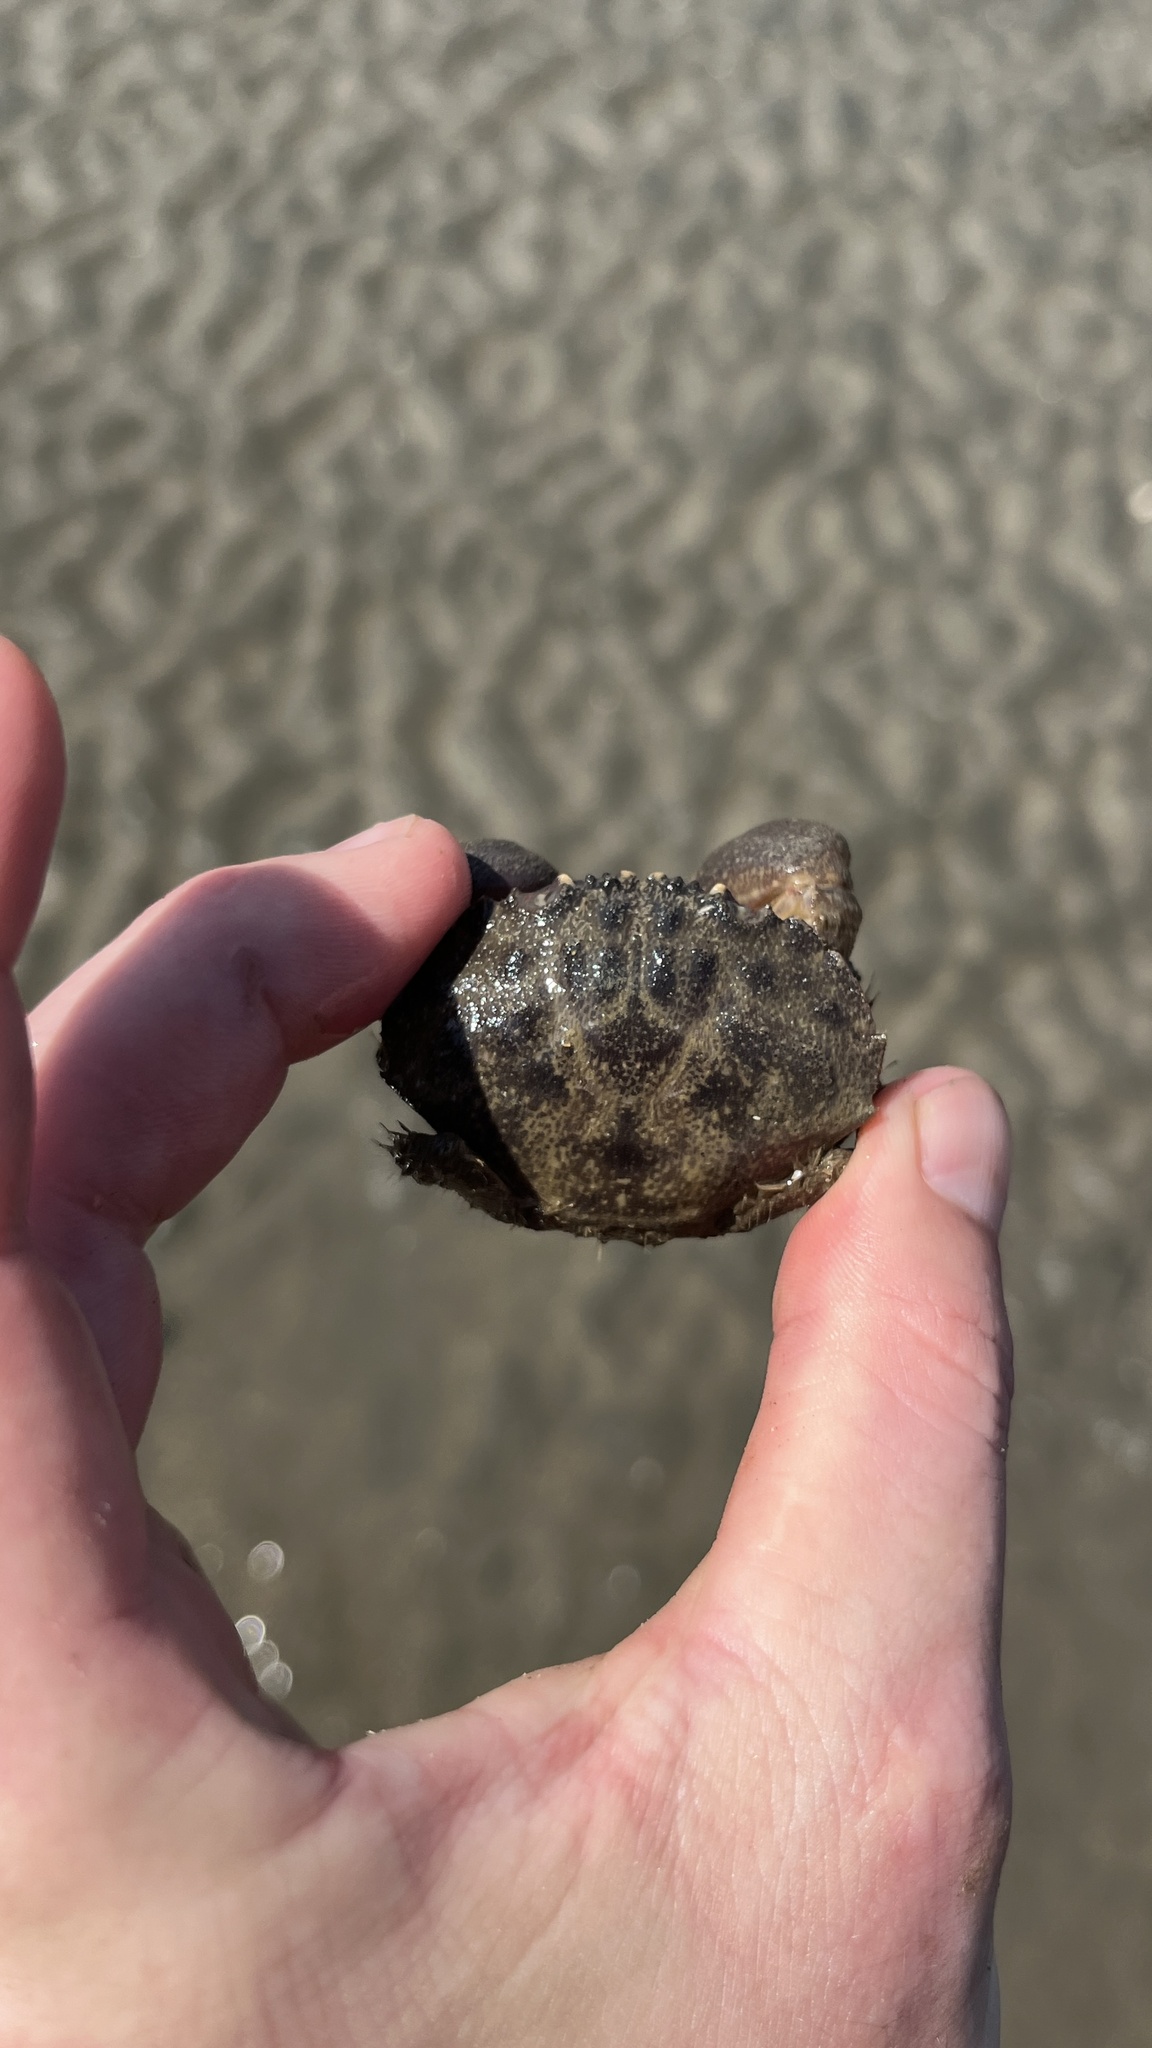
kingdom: Animalia
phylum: Arthropoda
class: Malacostraca
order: Decapoda
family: Menippidae
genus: Myomenippe
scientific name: Myomenippe hardwickii
